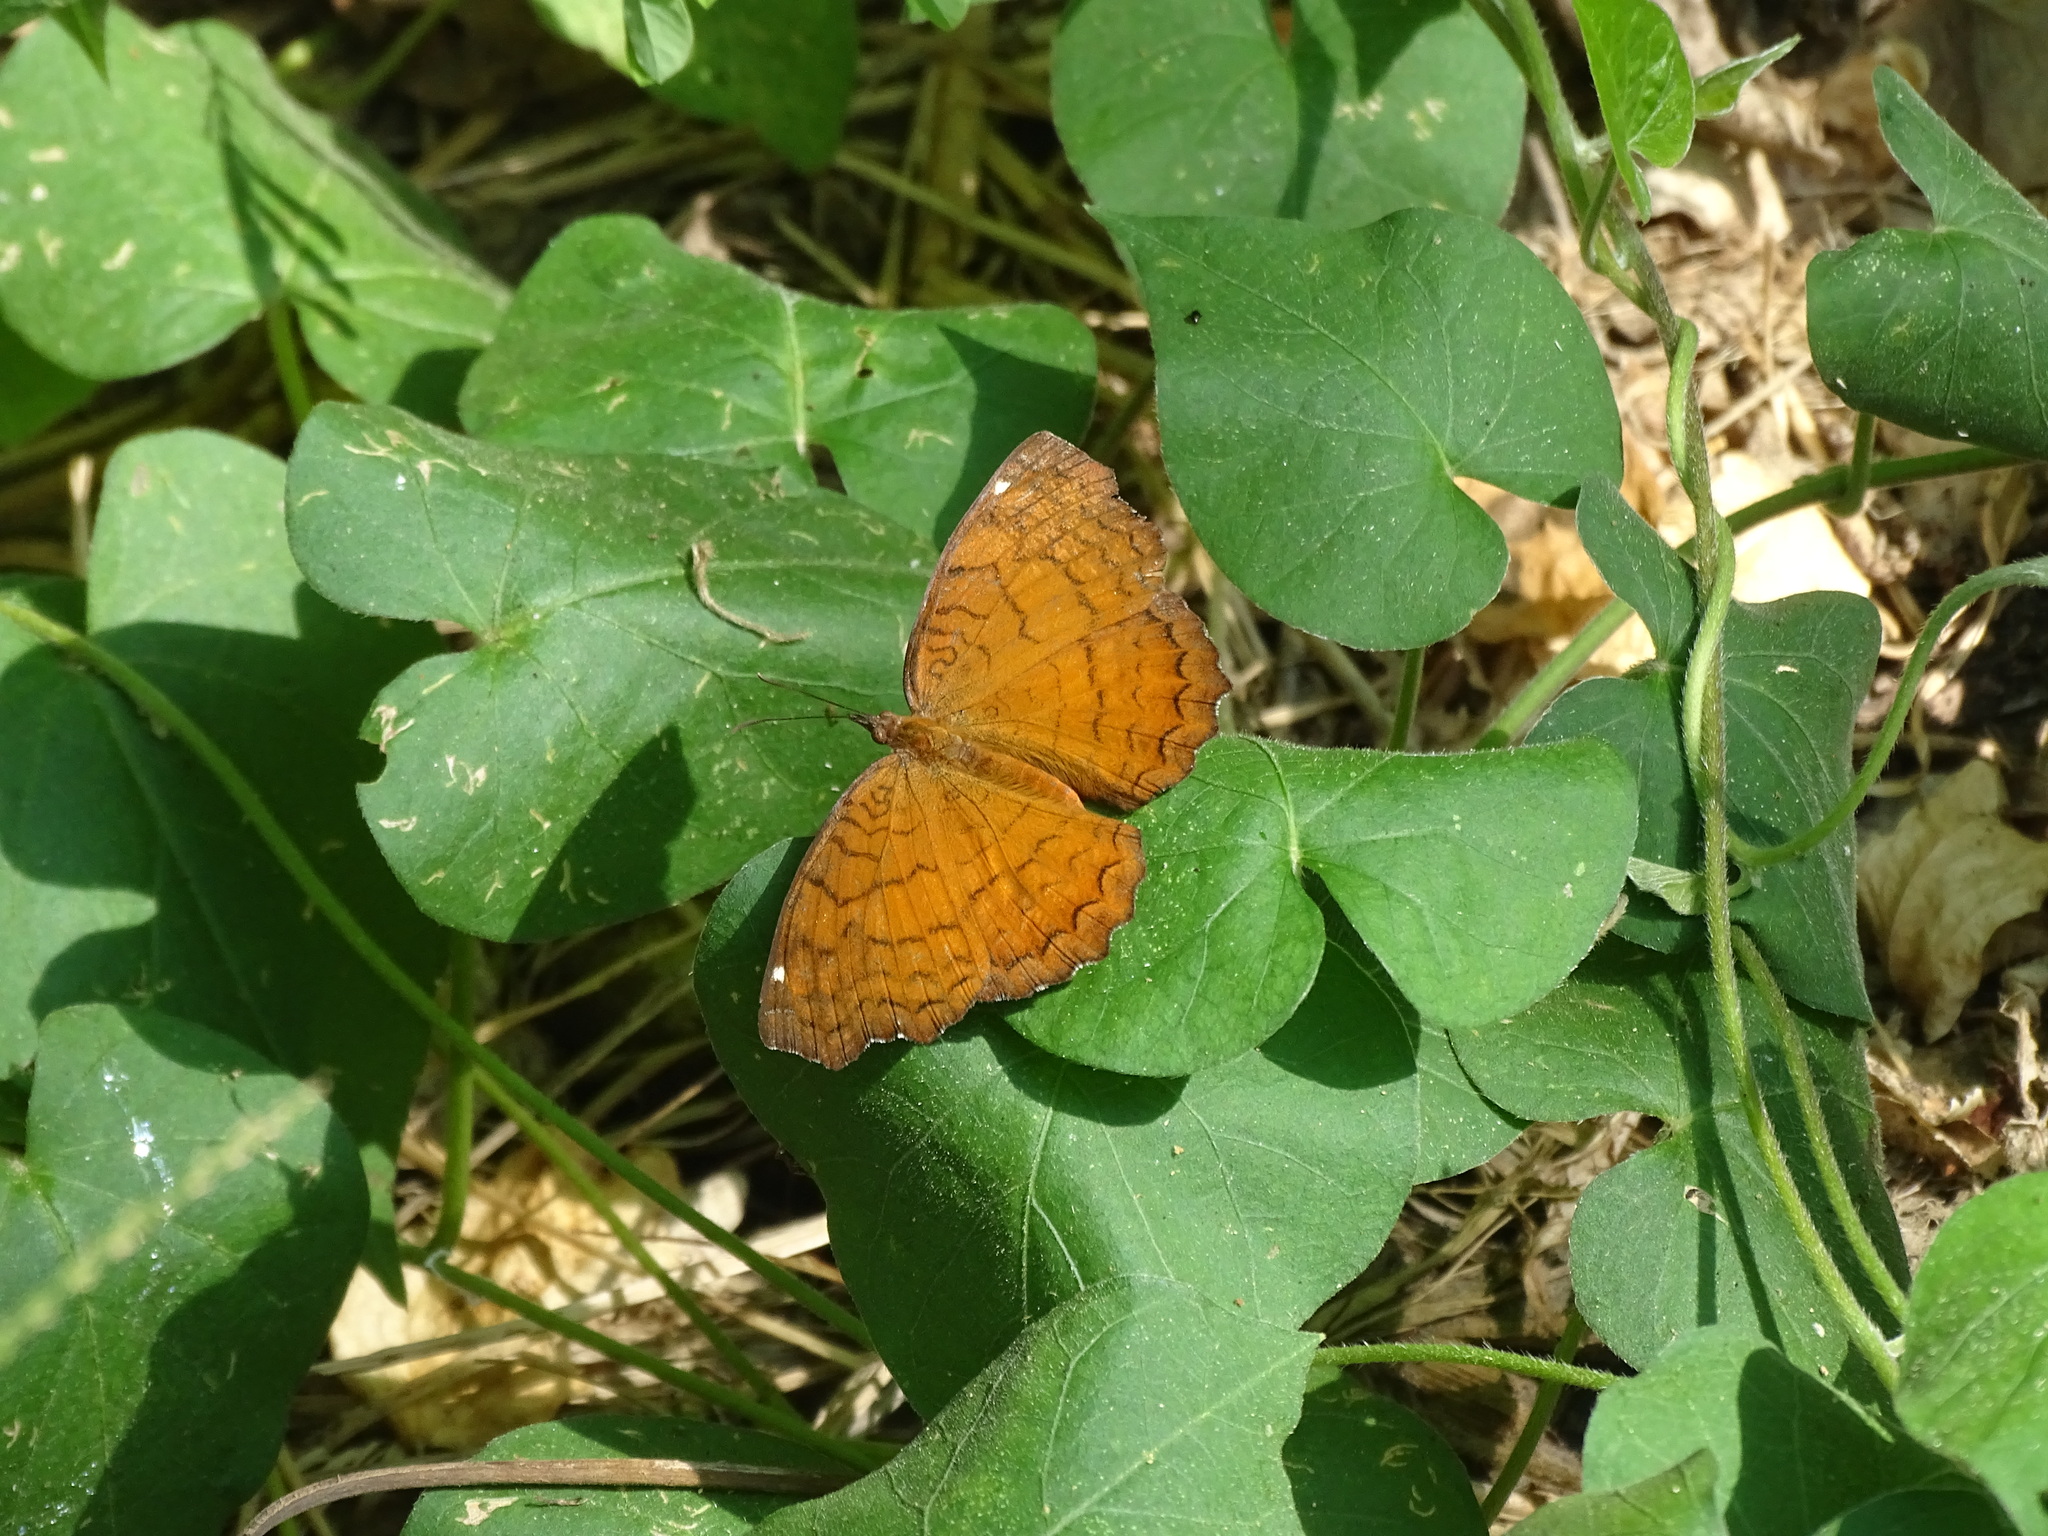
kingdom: Animalia
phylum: Arthropoda
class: Insecta
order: Lepidoptera
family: Nymphalidae
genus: Ariadne
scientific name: Ariadne ariadne
